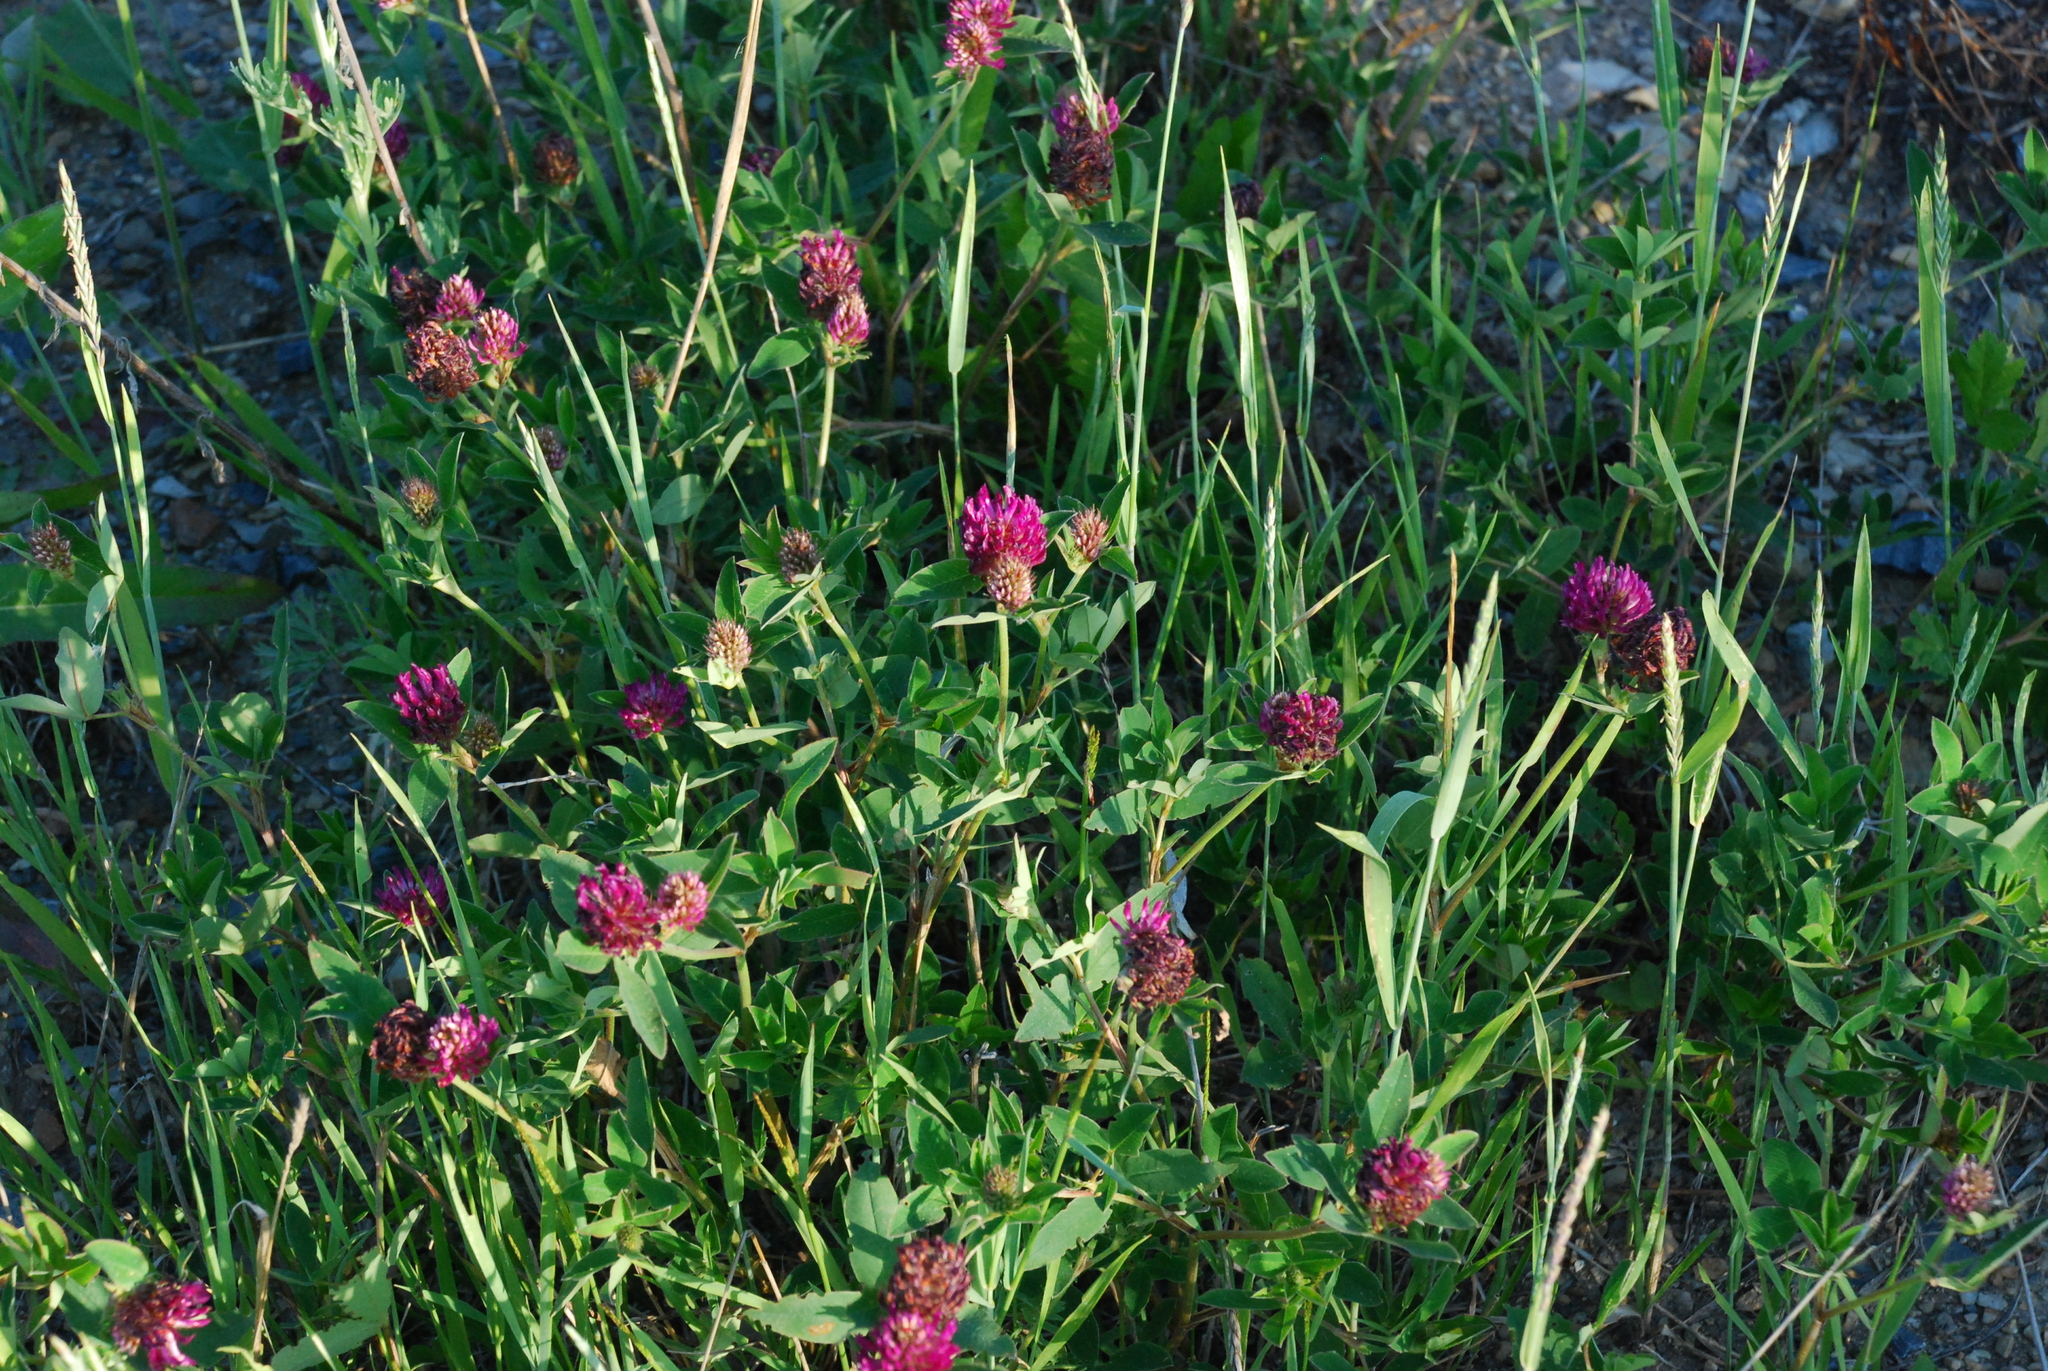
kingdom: Plantae
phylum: Tracheophyta
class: Magnoliopsida
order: Fabales
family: Fabaceae
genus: Trifolium
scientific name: Trifolium medium
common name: Zigzag clover
